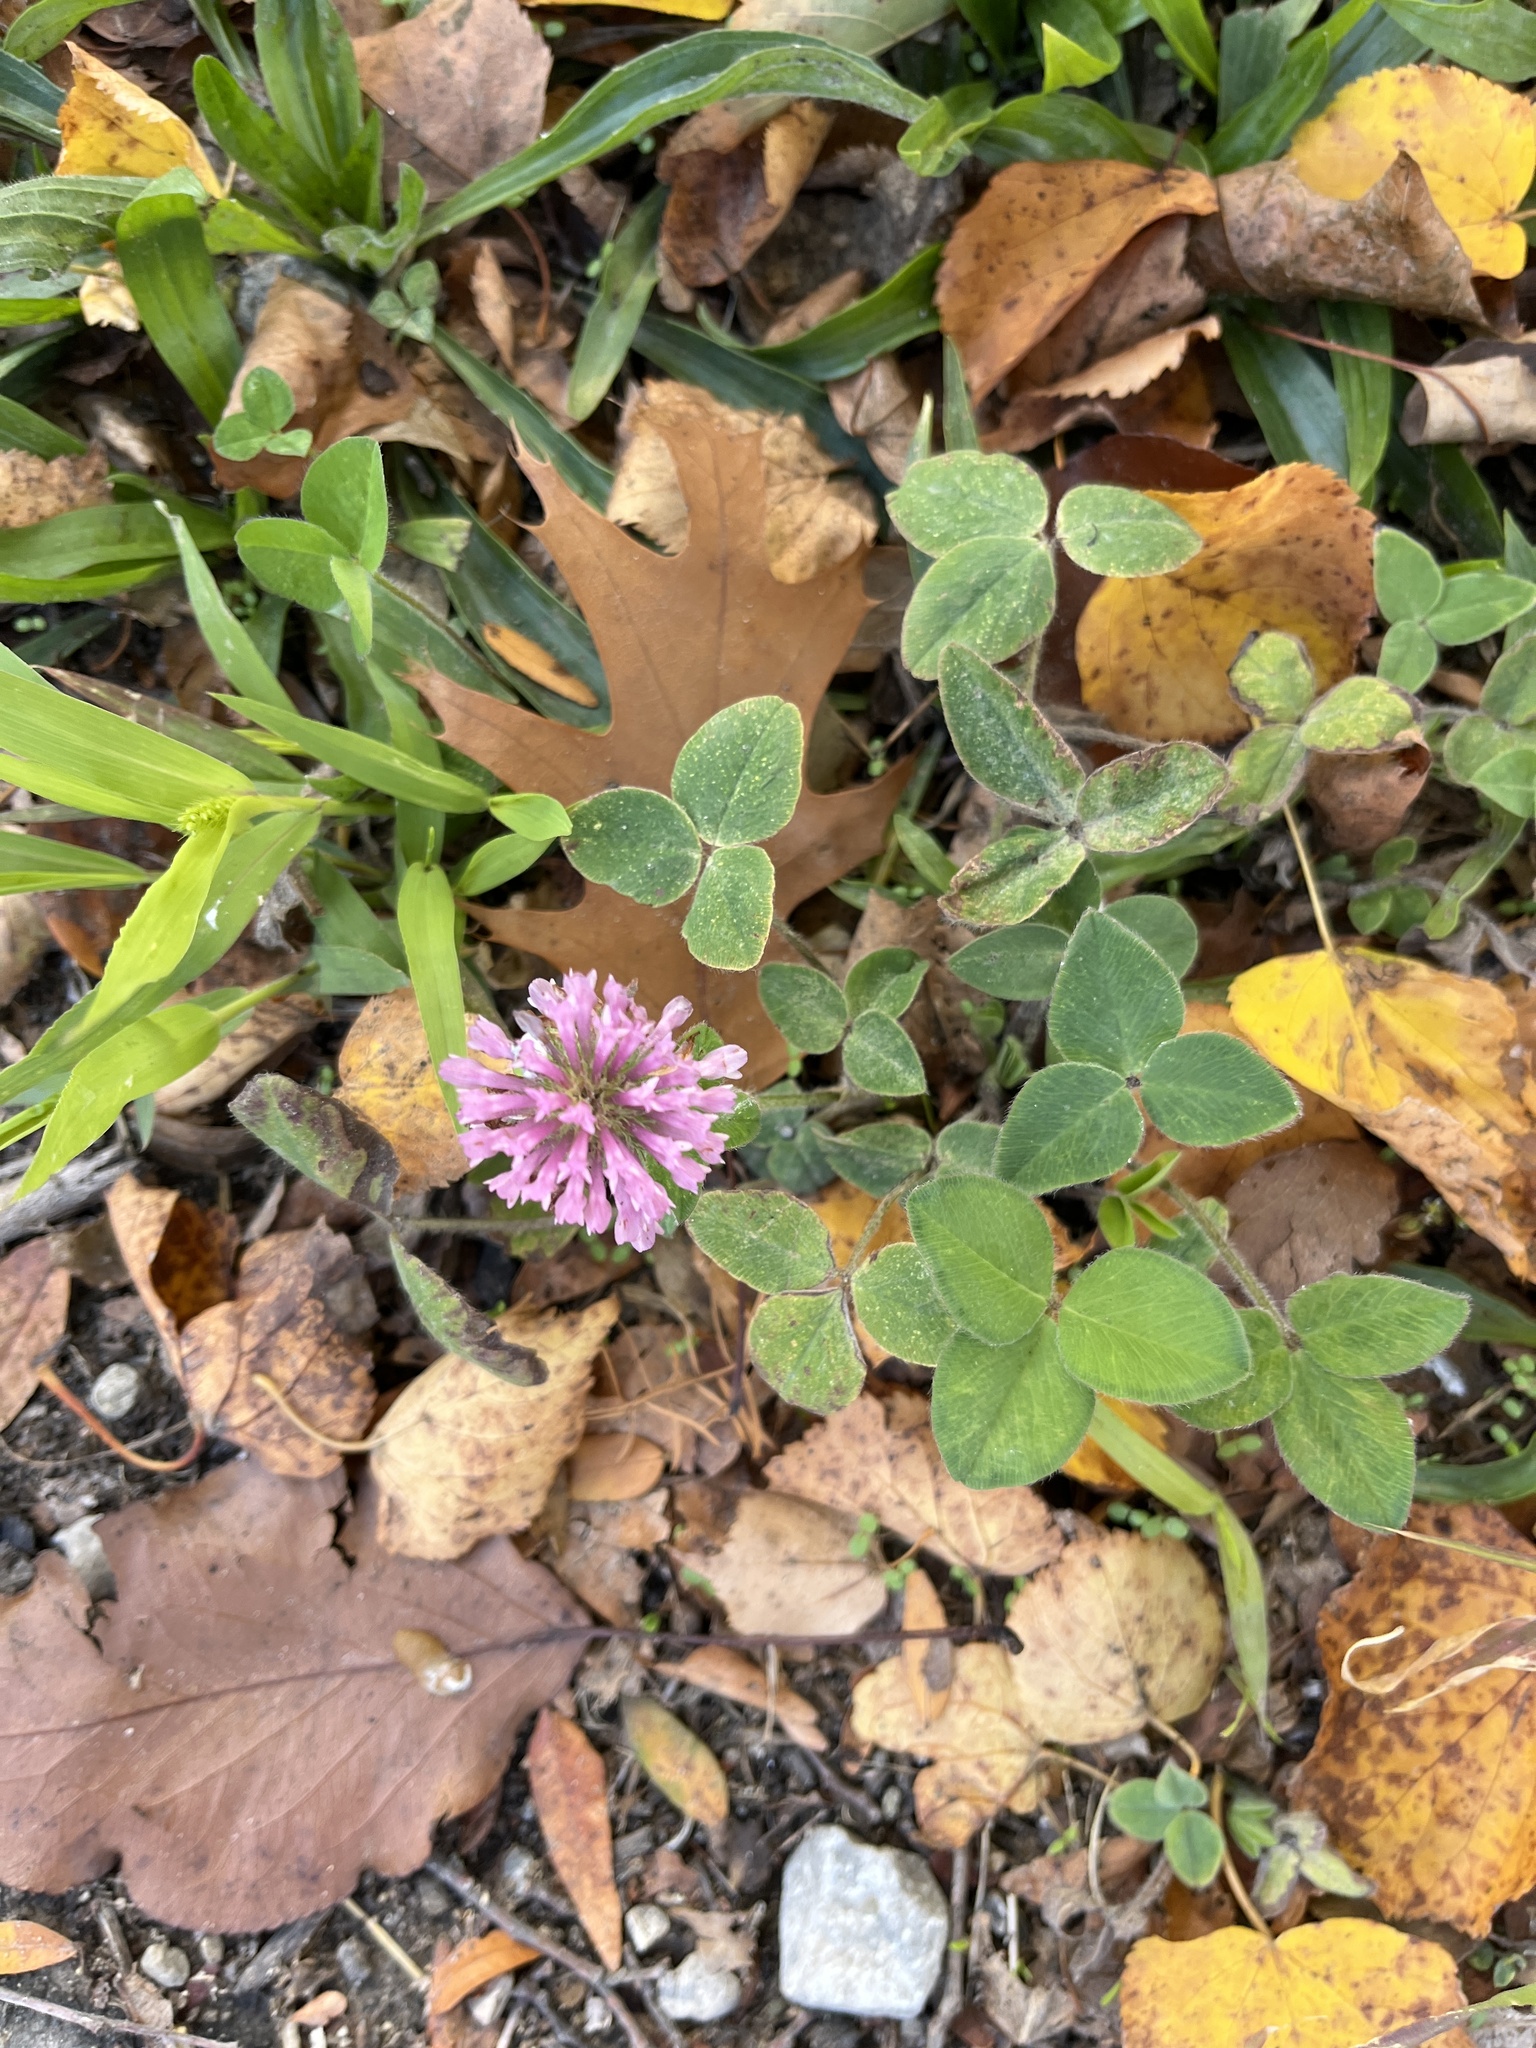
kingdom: Plantae
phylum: Tracheophyta
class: Magnoliopsida
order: Fabales
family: Fabaceae
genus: Trifolium
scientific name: Trifolium pratense
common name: Red clover
